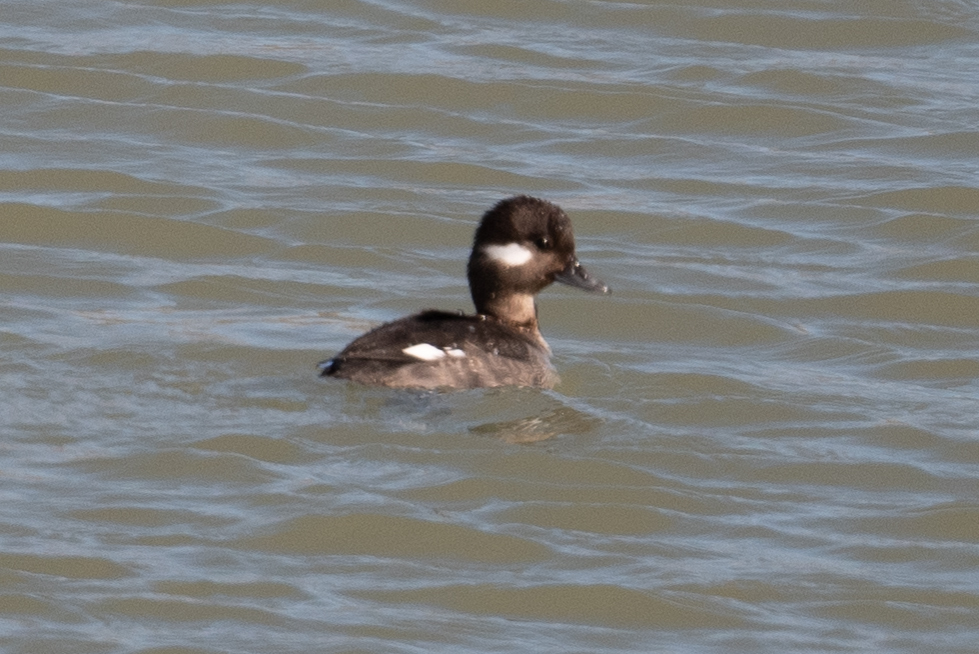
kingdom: Animalia
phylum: Chordata
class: Aves
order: Anseriformes
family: Anatidae
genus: Bucephala
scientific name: Bucephala albeola
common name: Bufflehead
